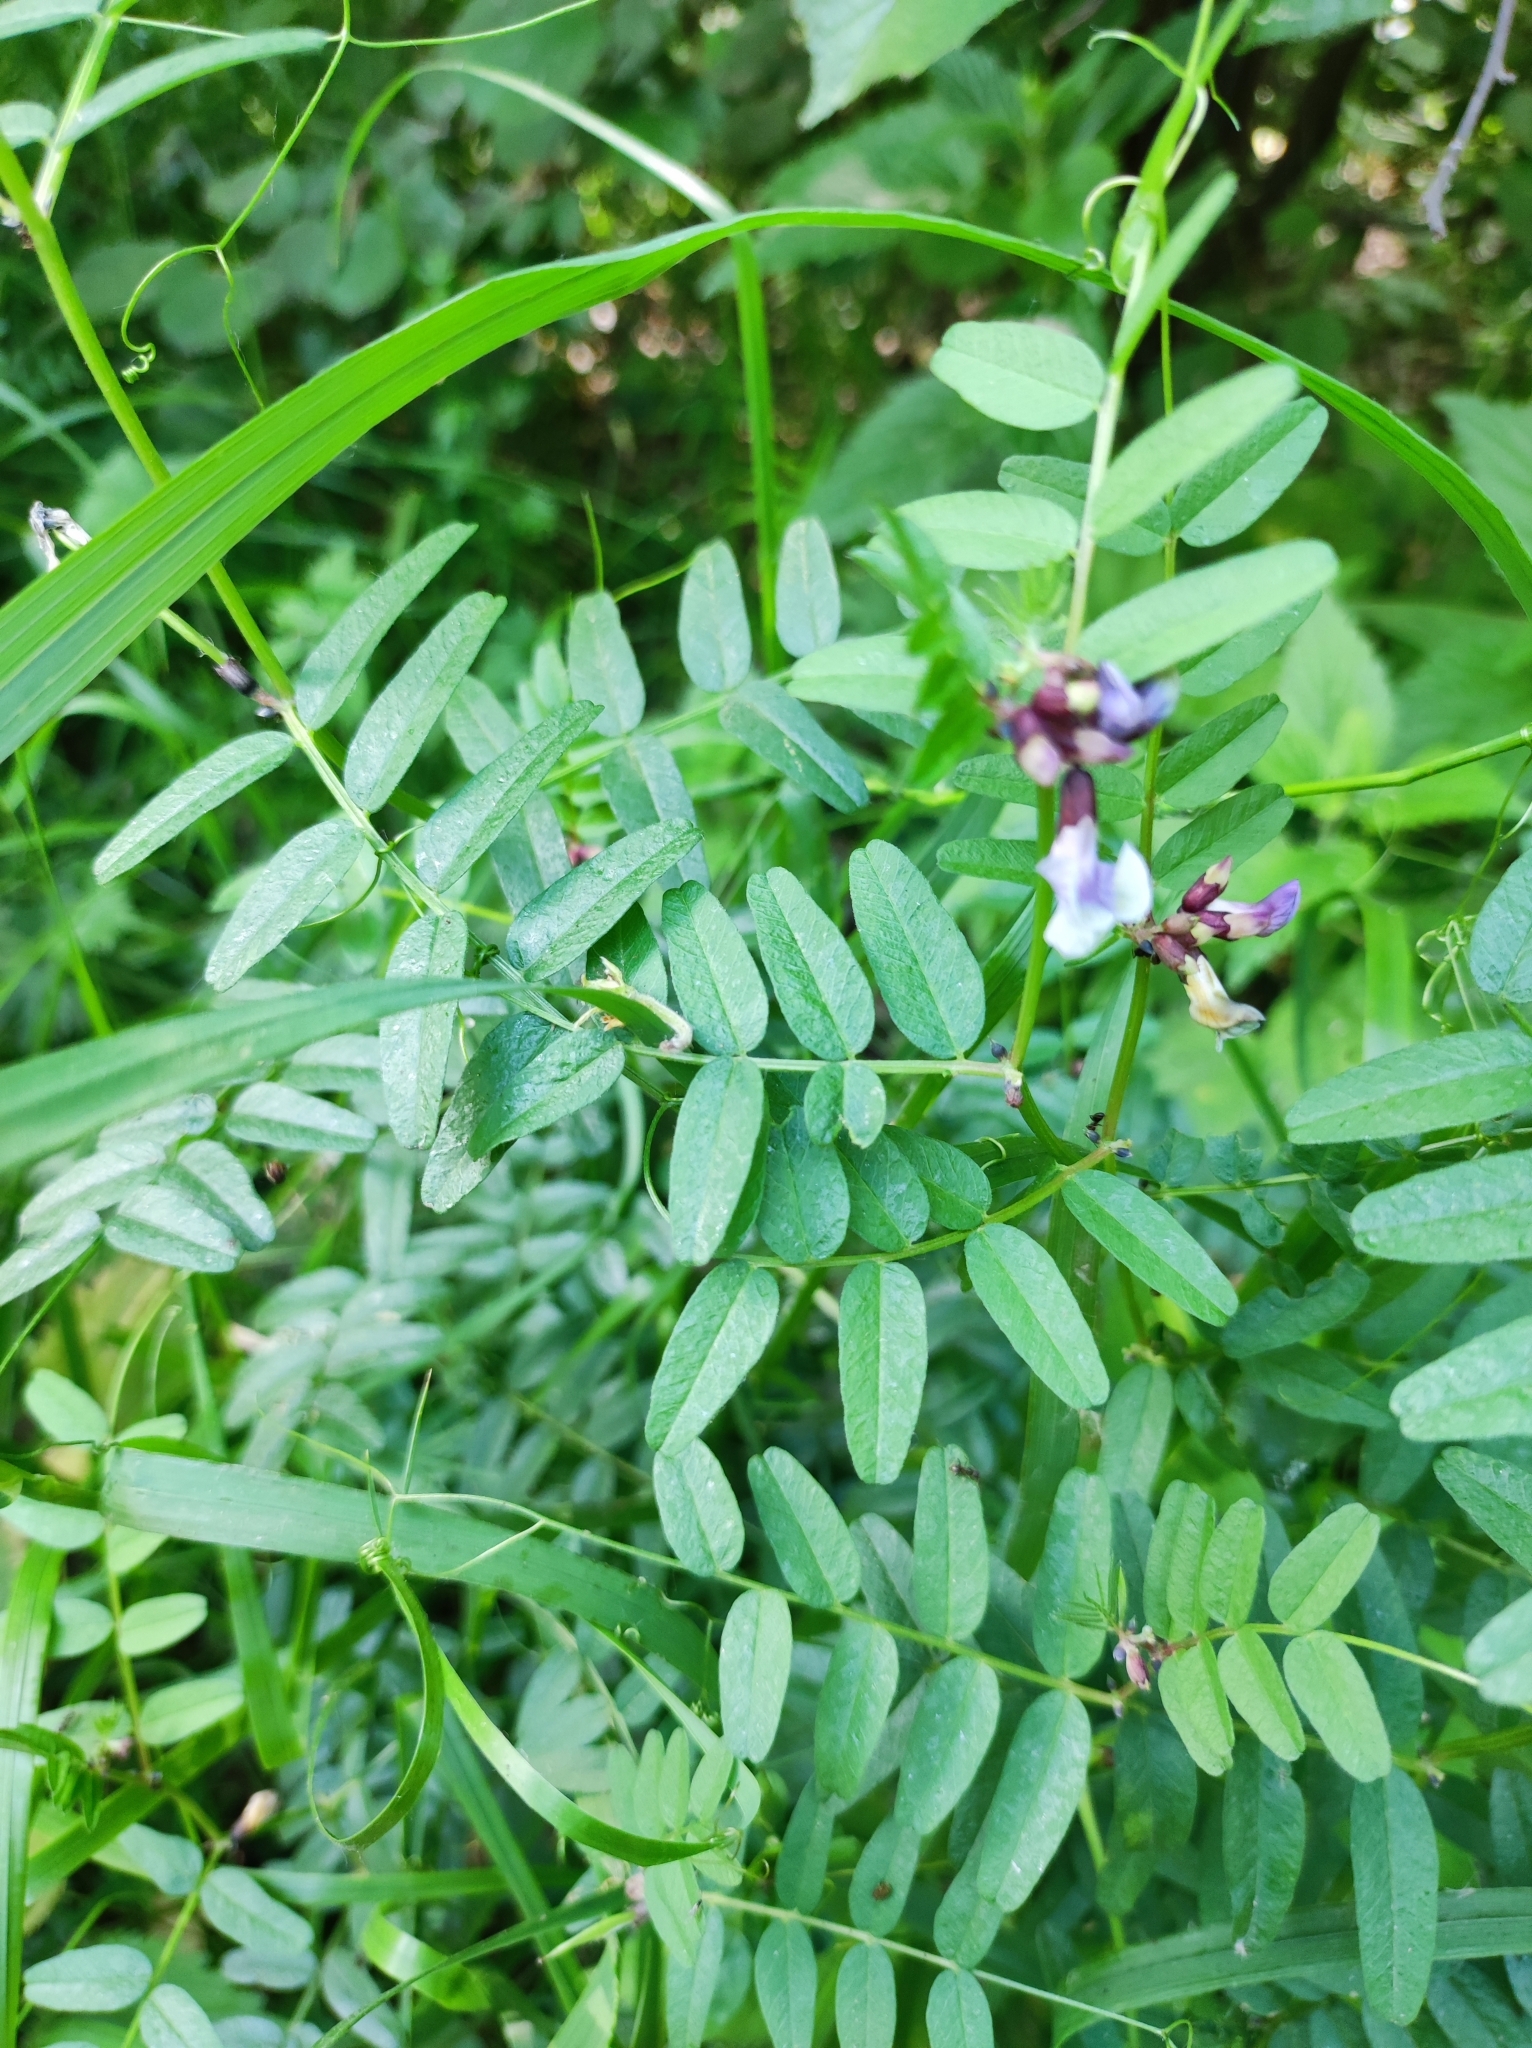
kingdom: Plantae
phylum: Tracheophyta
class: Magnoliopsida
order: Fabales
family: Fabaceae
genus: Vicia
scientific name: Vicia sepium
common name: Bush vetch
